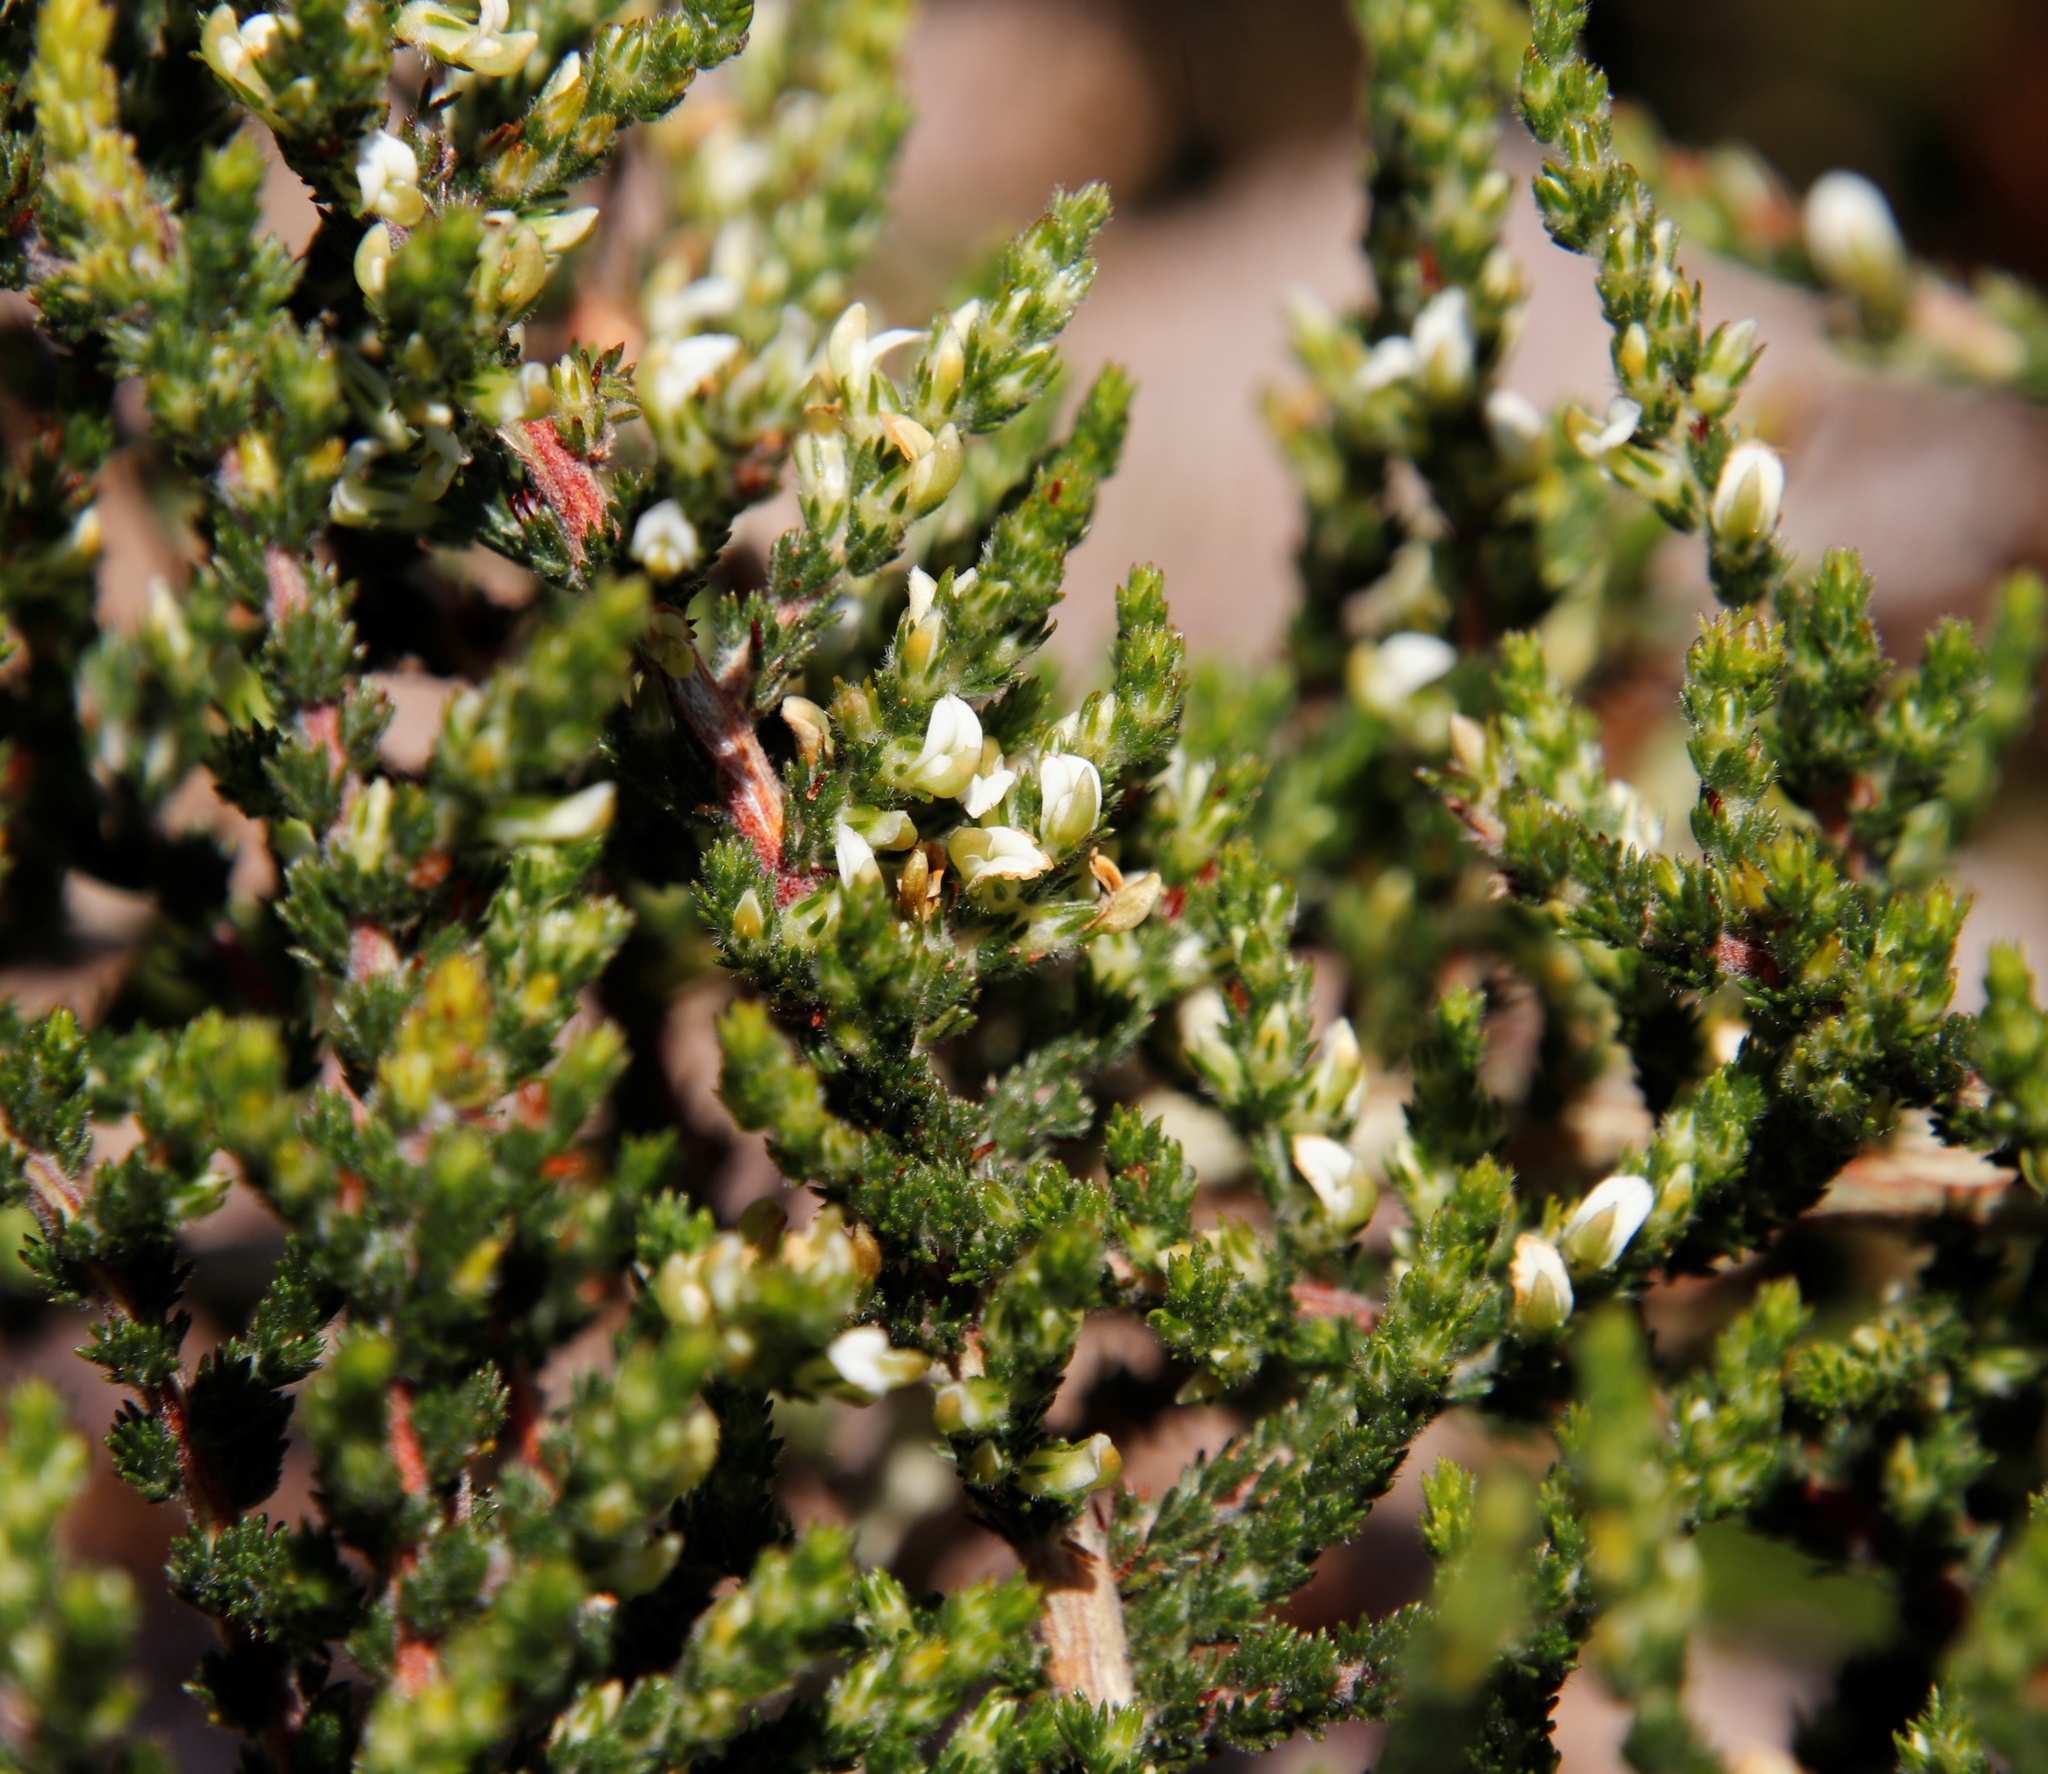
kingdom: Plantae
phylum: Tracheophyta
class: Magnoliopsida
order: Fabales
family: Fabaceae
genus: Aspalathus
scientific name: Aspalathus hispida
